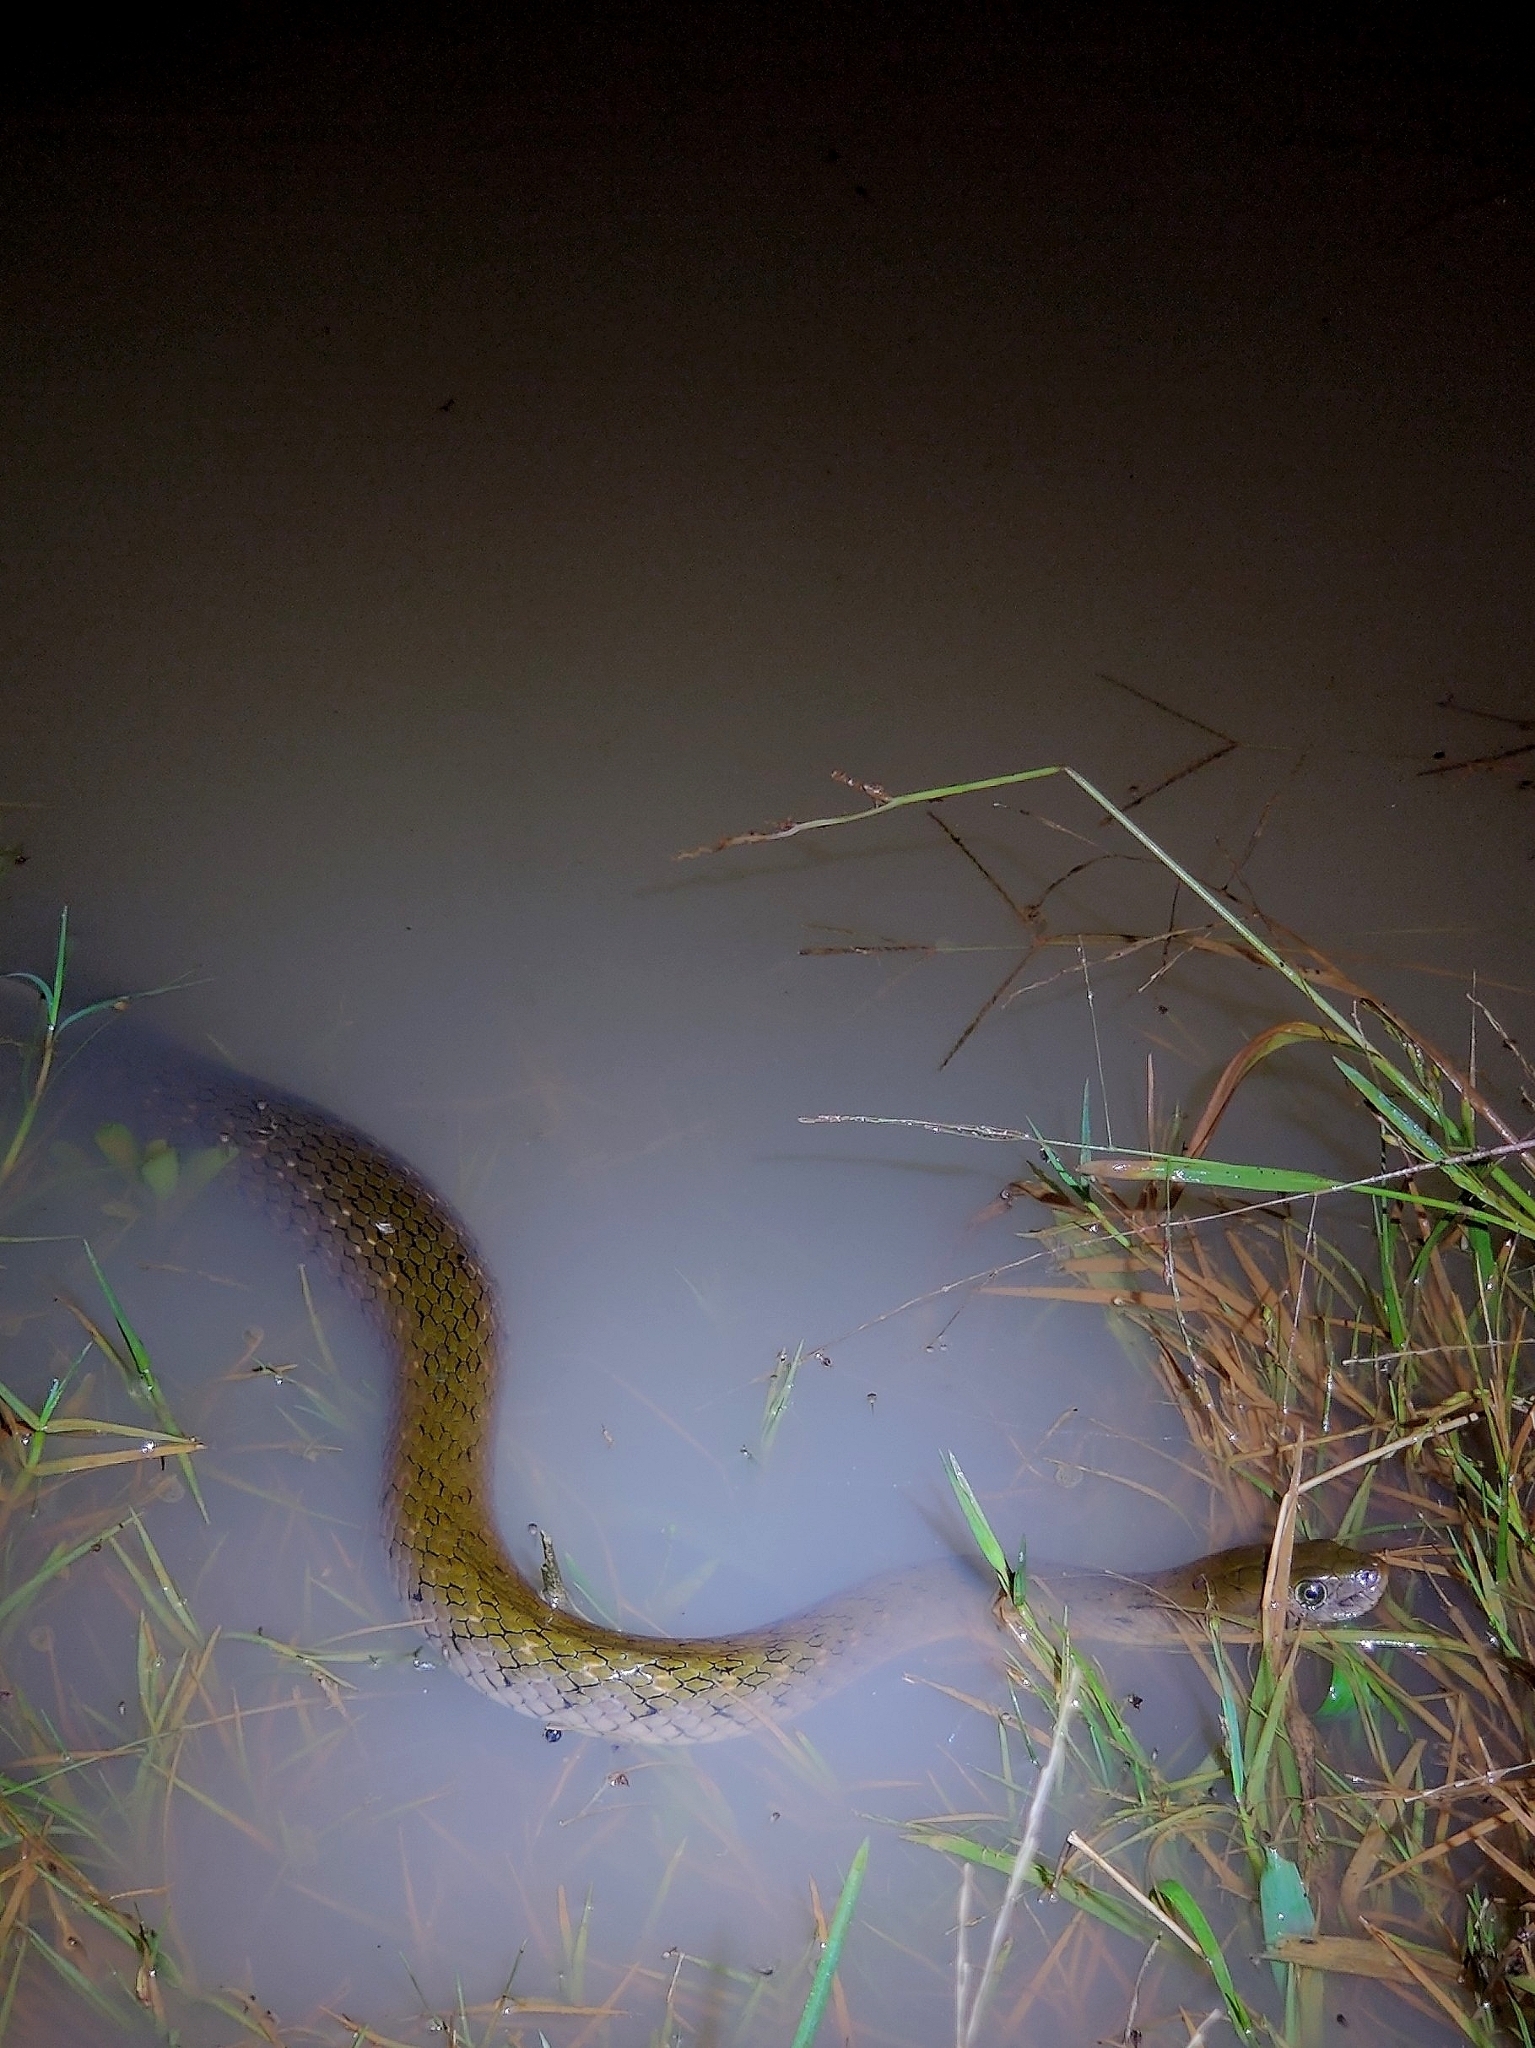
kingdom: Animalia
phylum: Chordata
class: Squamata
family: Colubridae
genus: Fowlea
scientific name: Fowlea piscator
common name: Asiatic water snake
